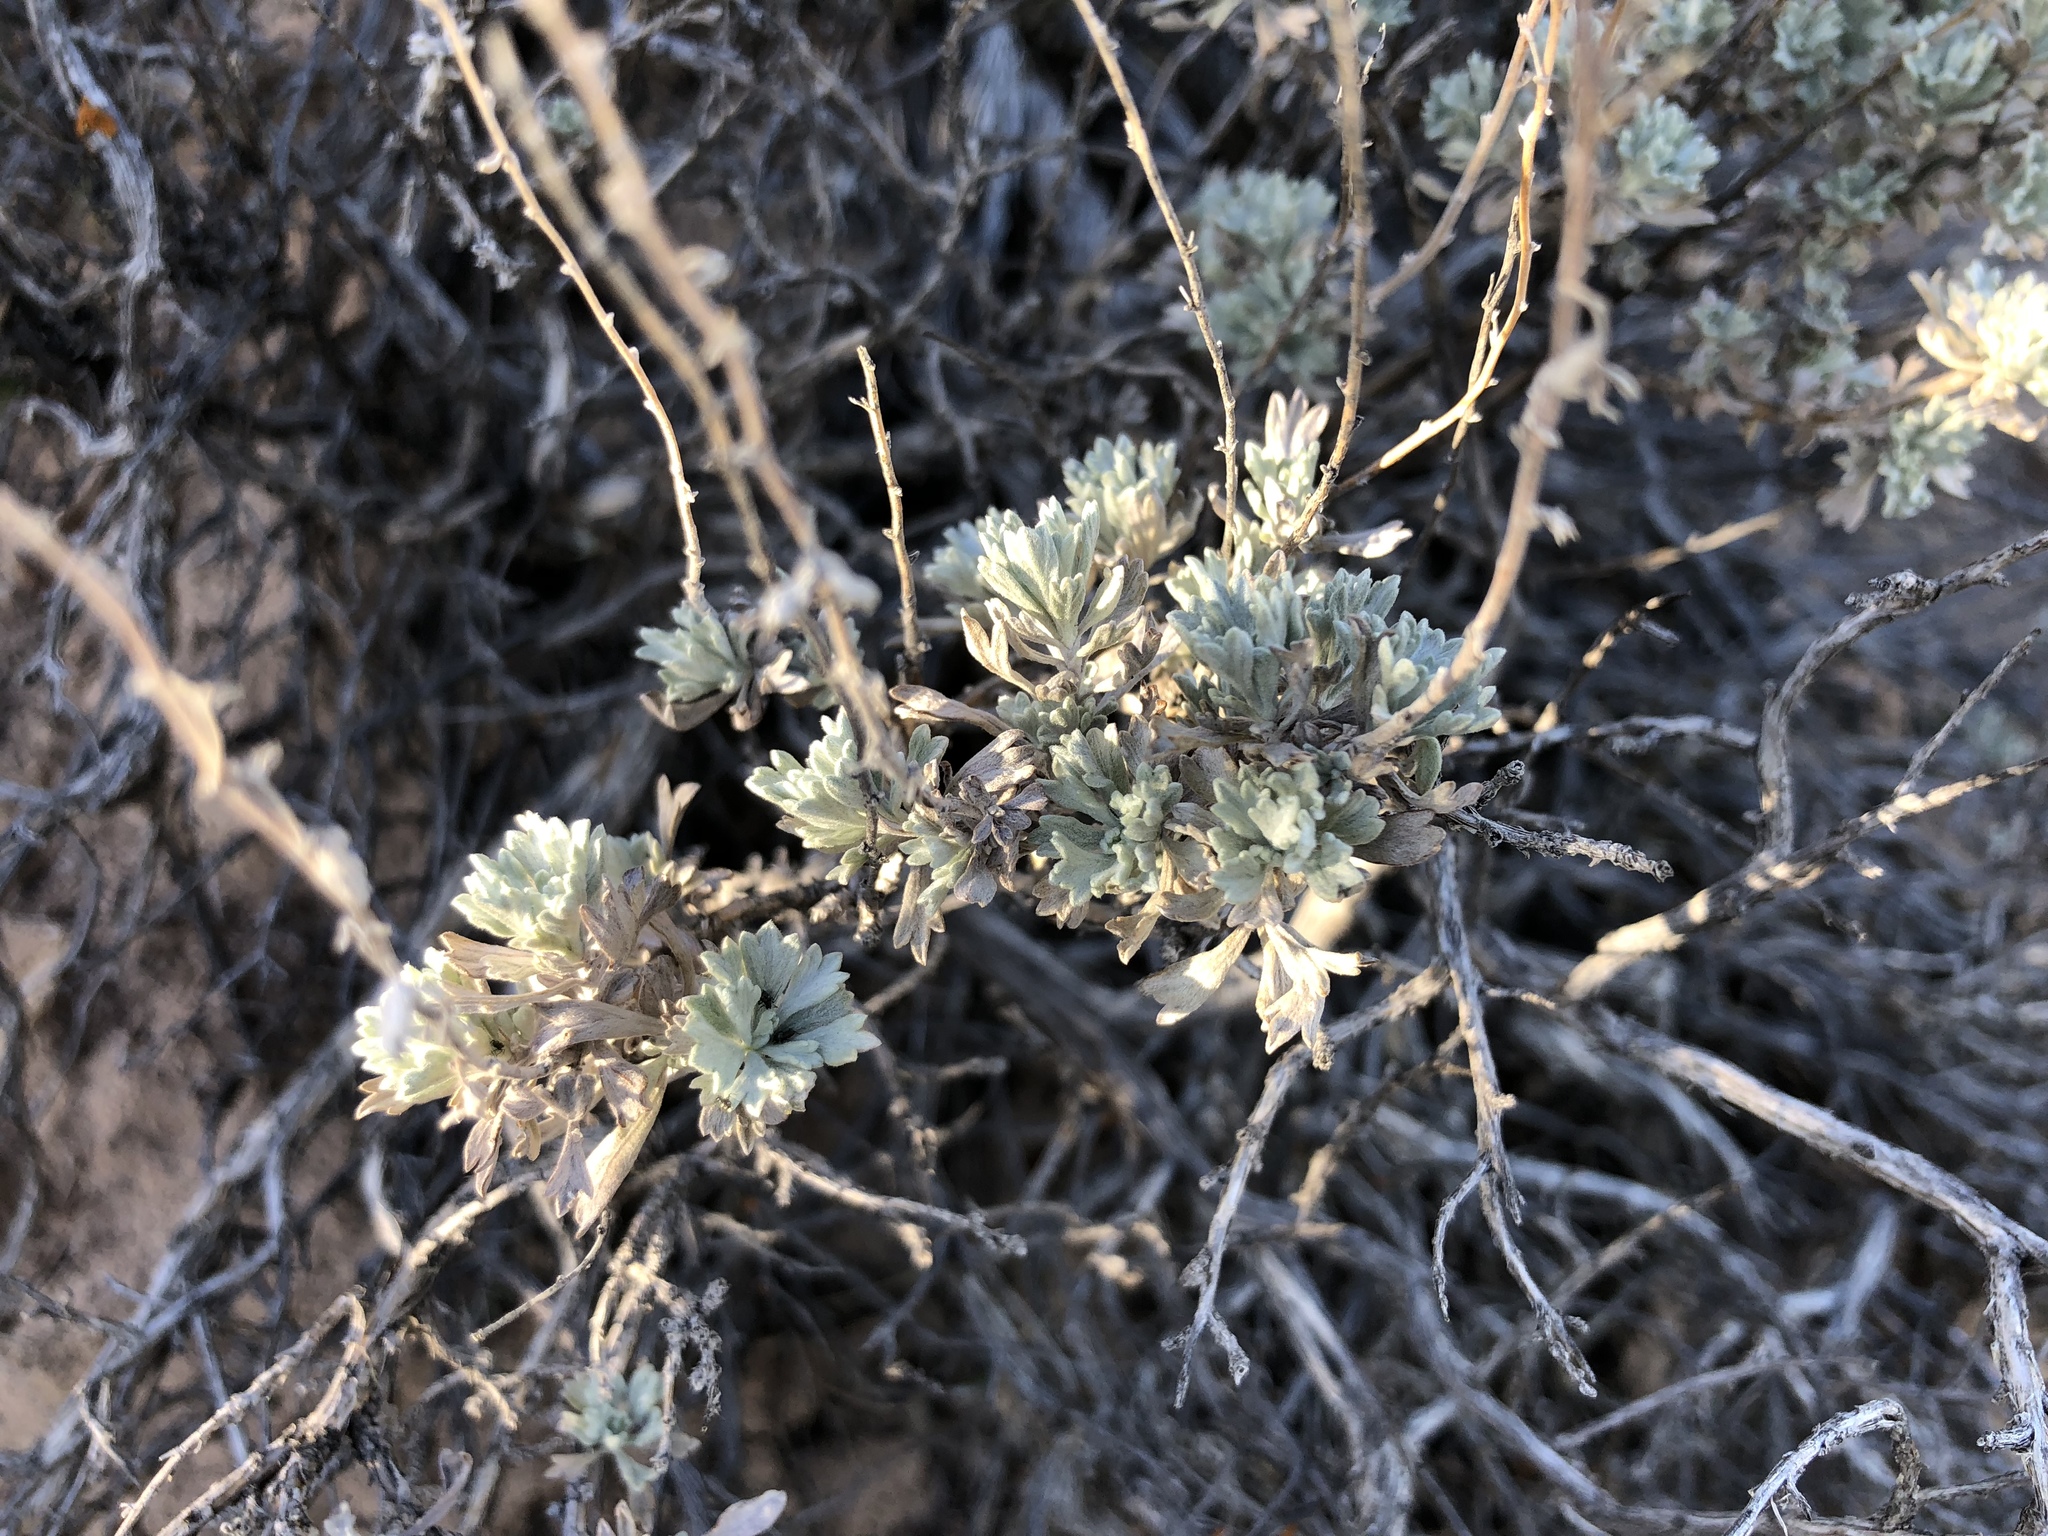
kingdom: Plantae
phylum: Tracheophyta
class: Magnoliopsida
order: Asterales
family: Asteraceae
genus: Artemisia
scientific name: Artemisia tridentata
